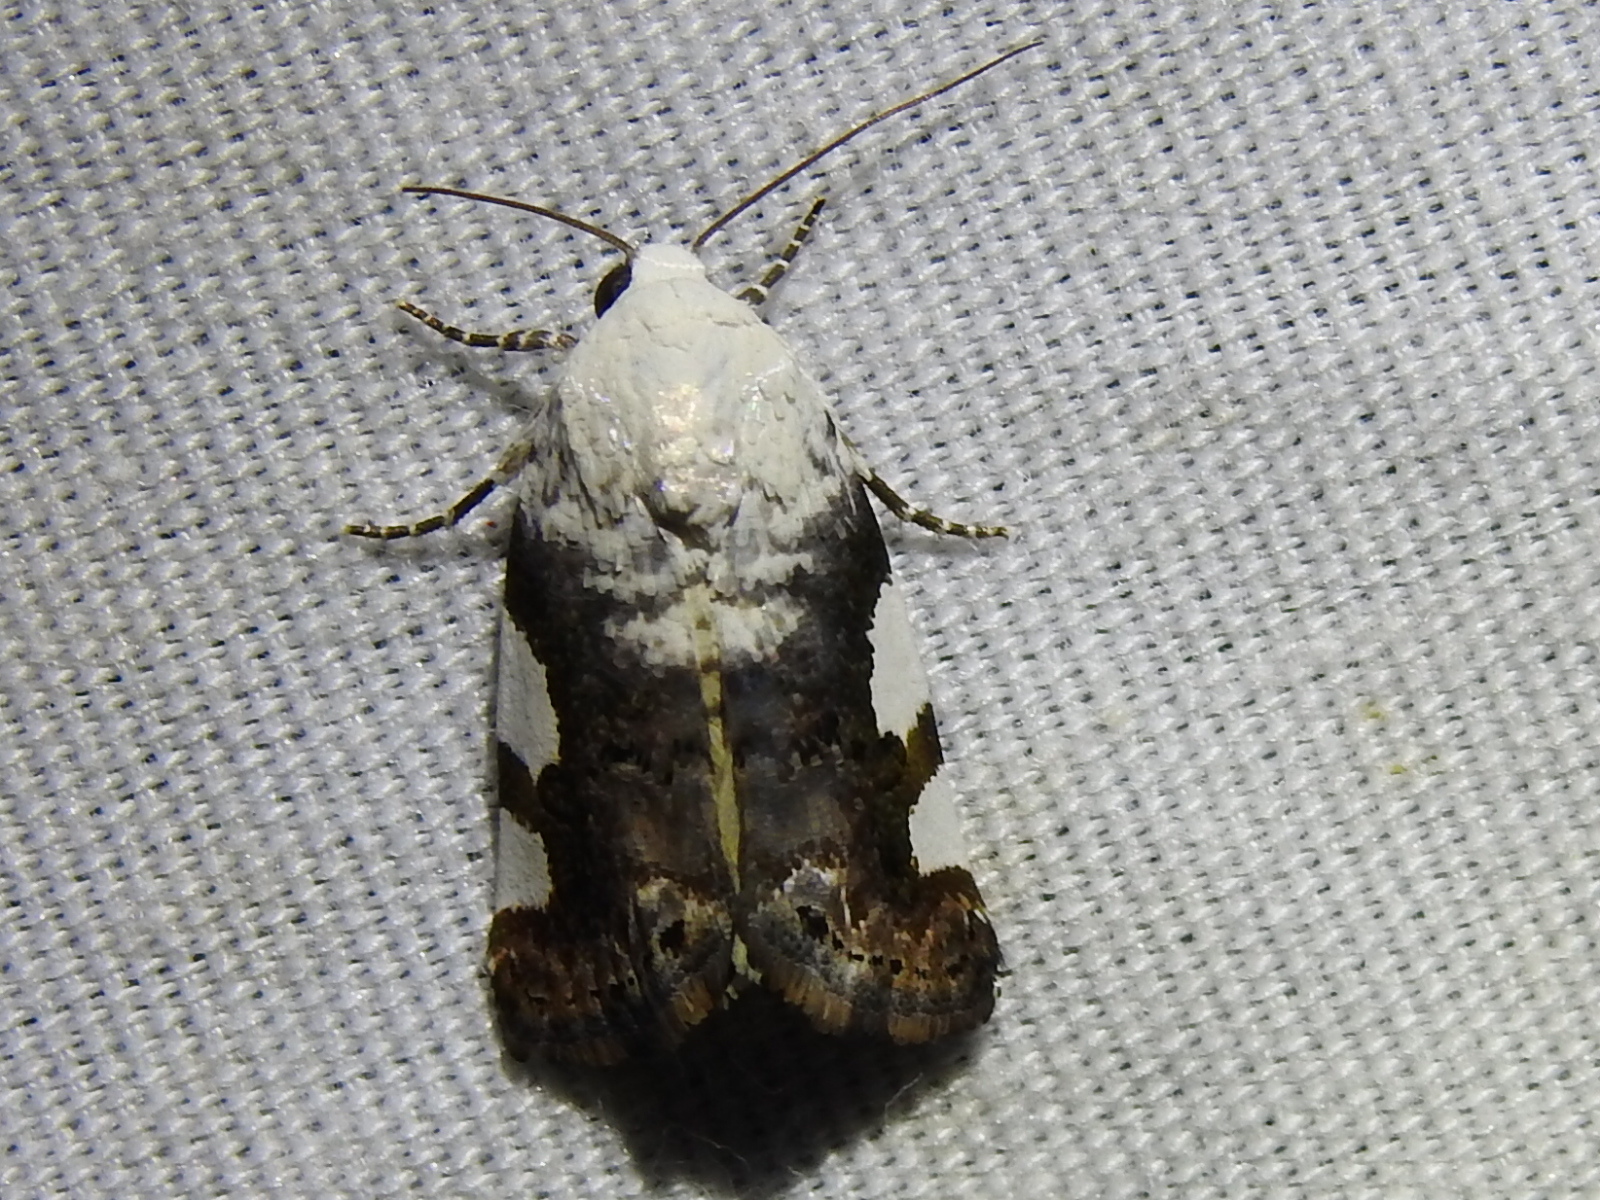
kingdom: Animalia
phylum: Arthropoda
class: Insecta
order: Lepidoptera
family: Noctuidae
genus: Acontia
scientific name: Acontia quadriplaga
